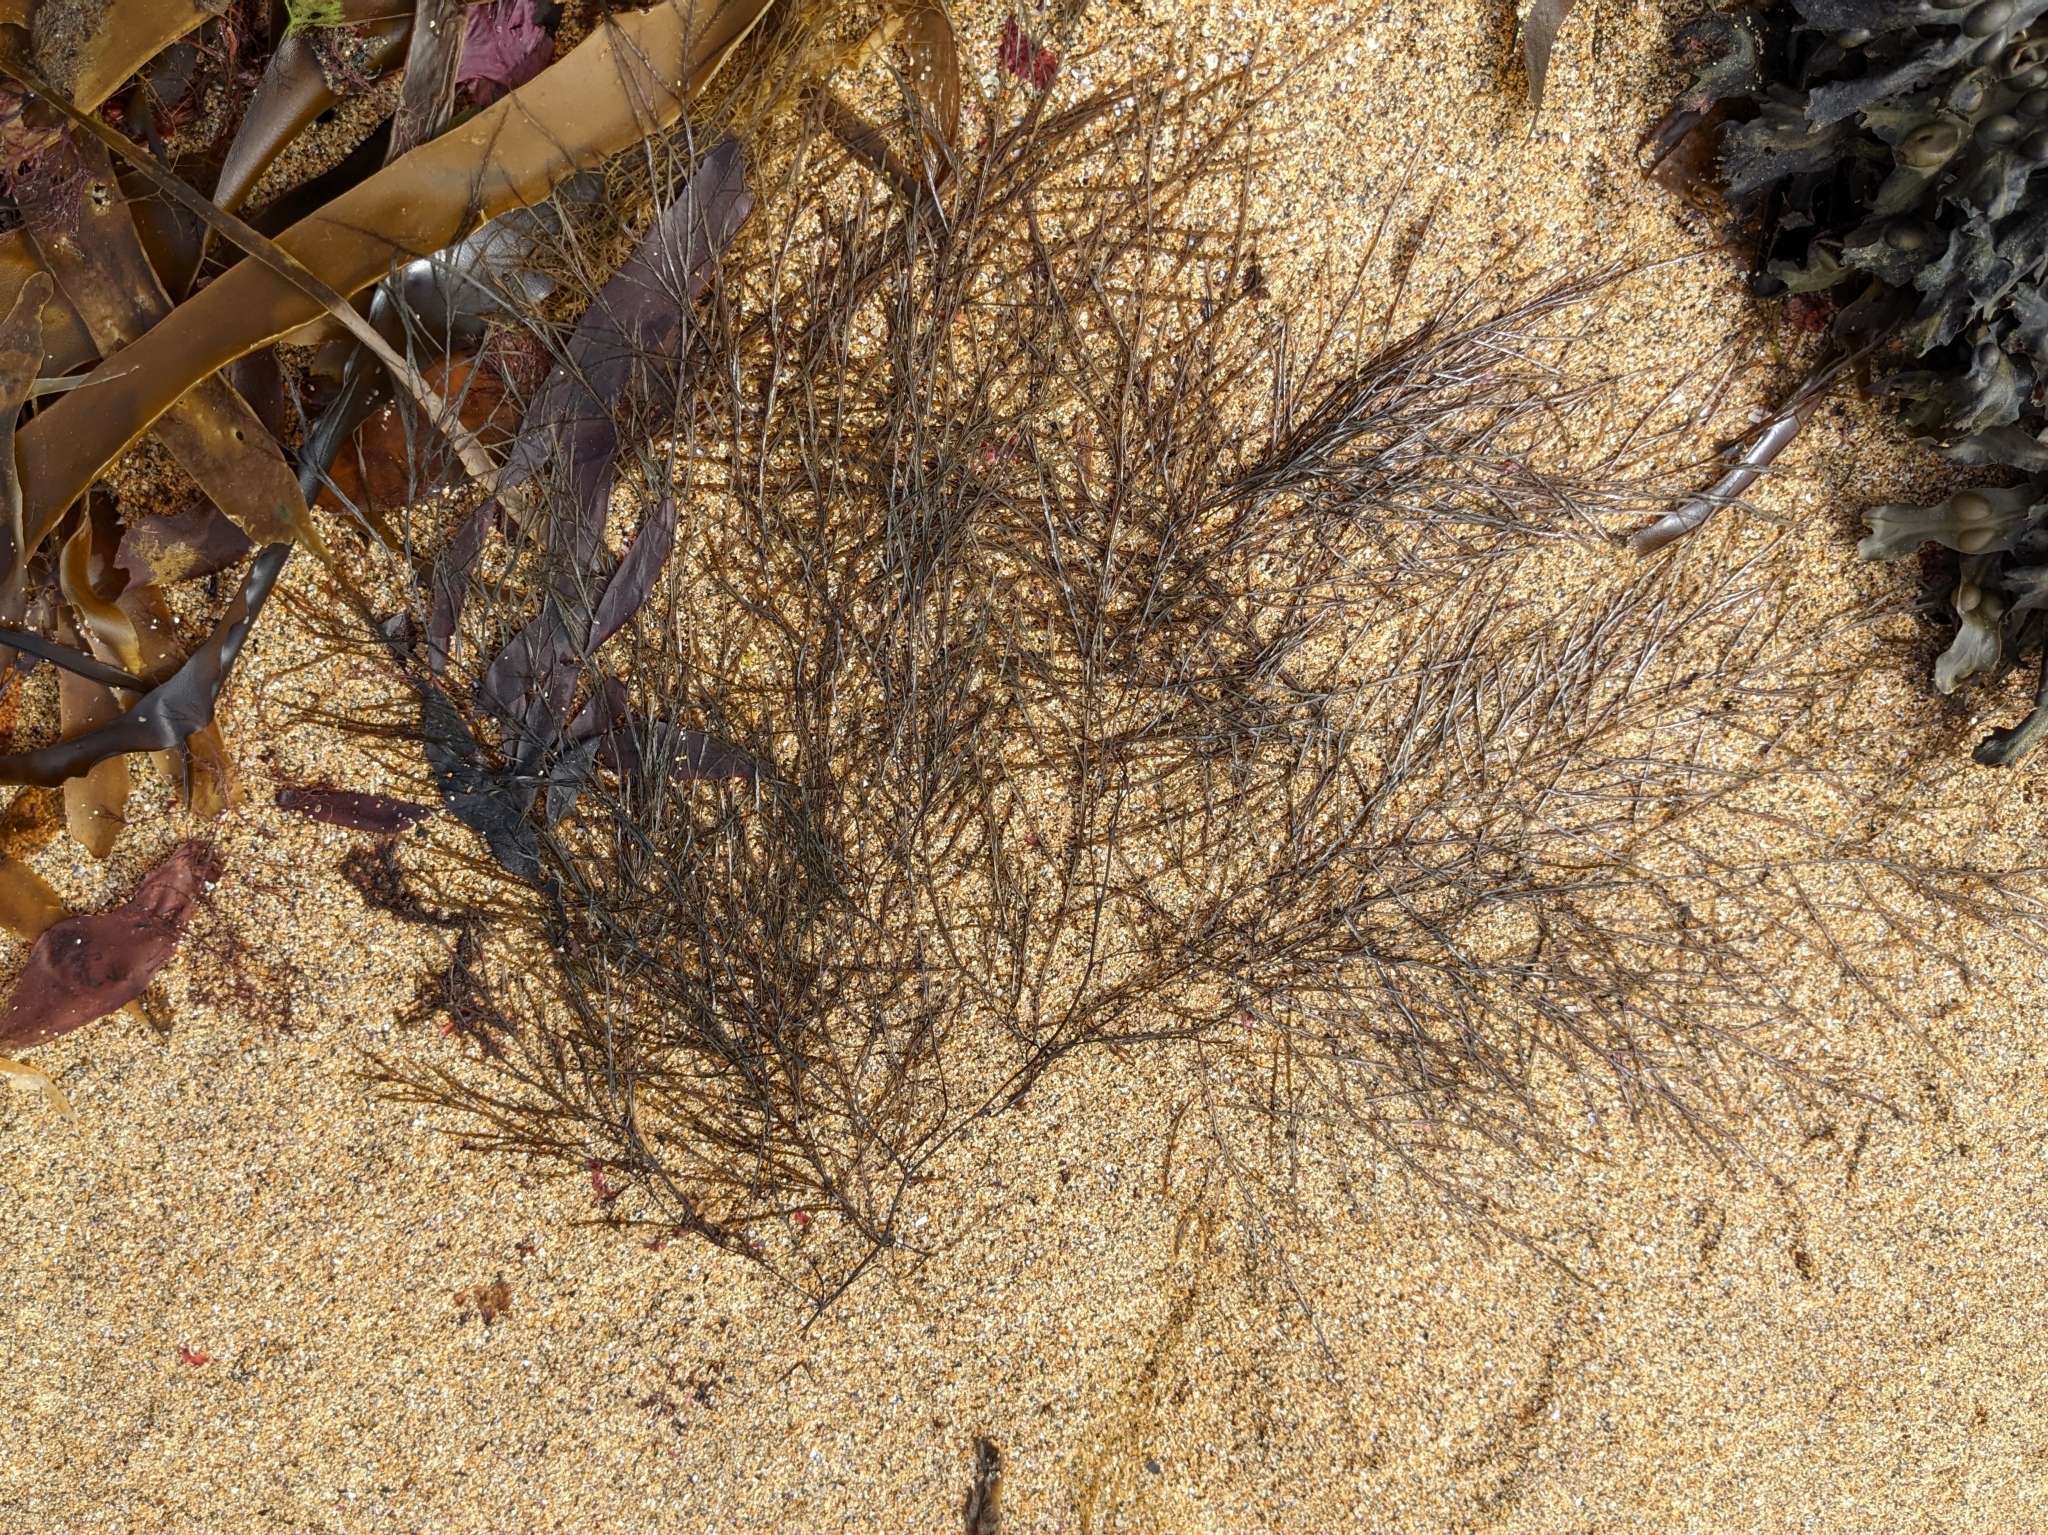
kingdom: Chromista
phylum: Ochrophyta
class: Phaeophyceae
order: Desmarestiales
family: Desmarestiaceae
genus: Desmarestia
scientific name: Desmarestia aculeata
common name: Witch's hair
